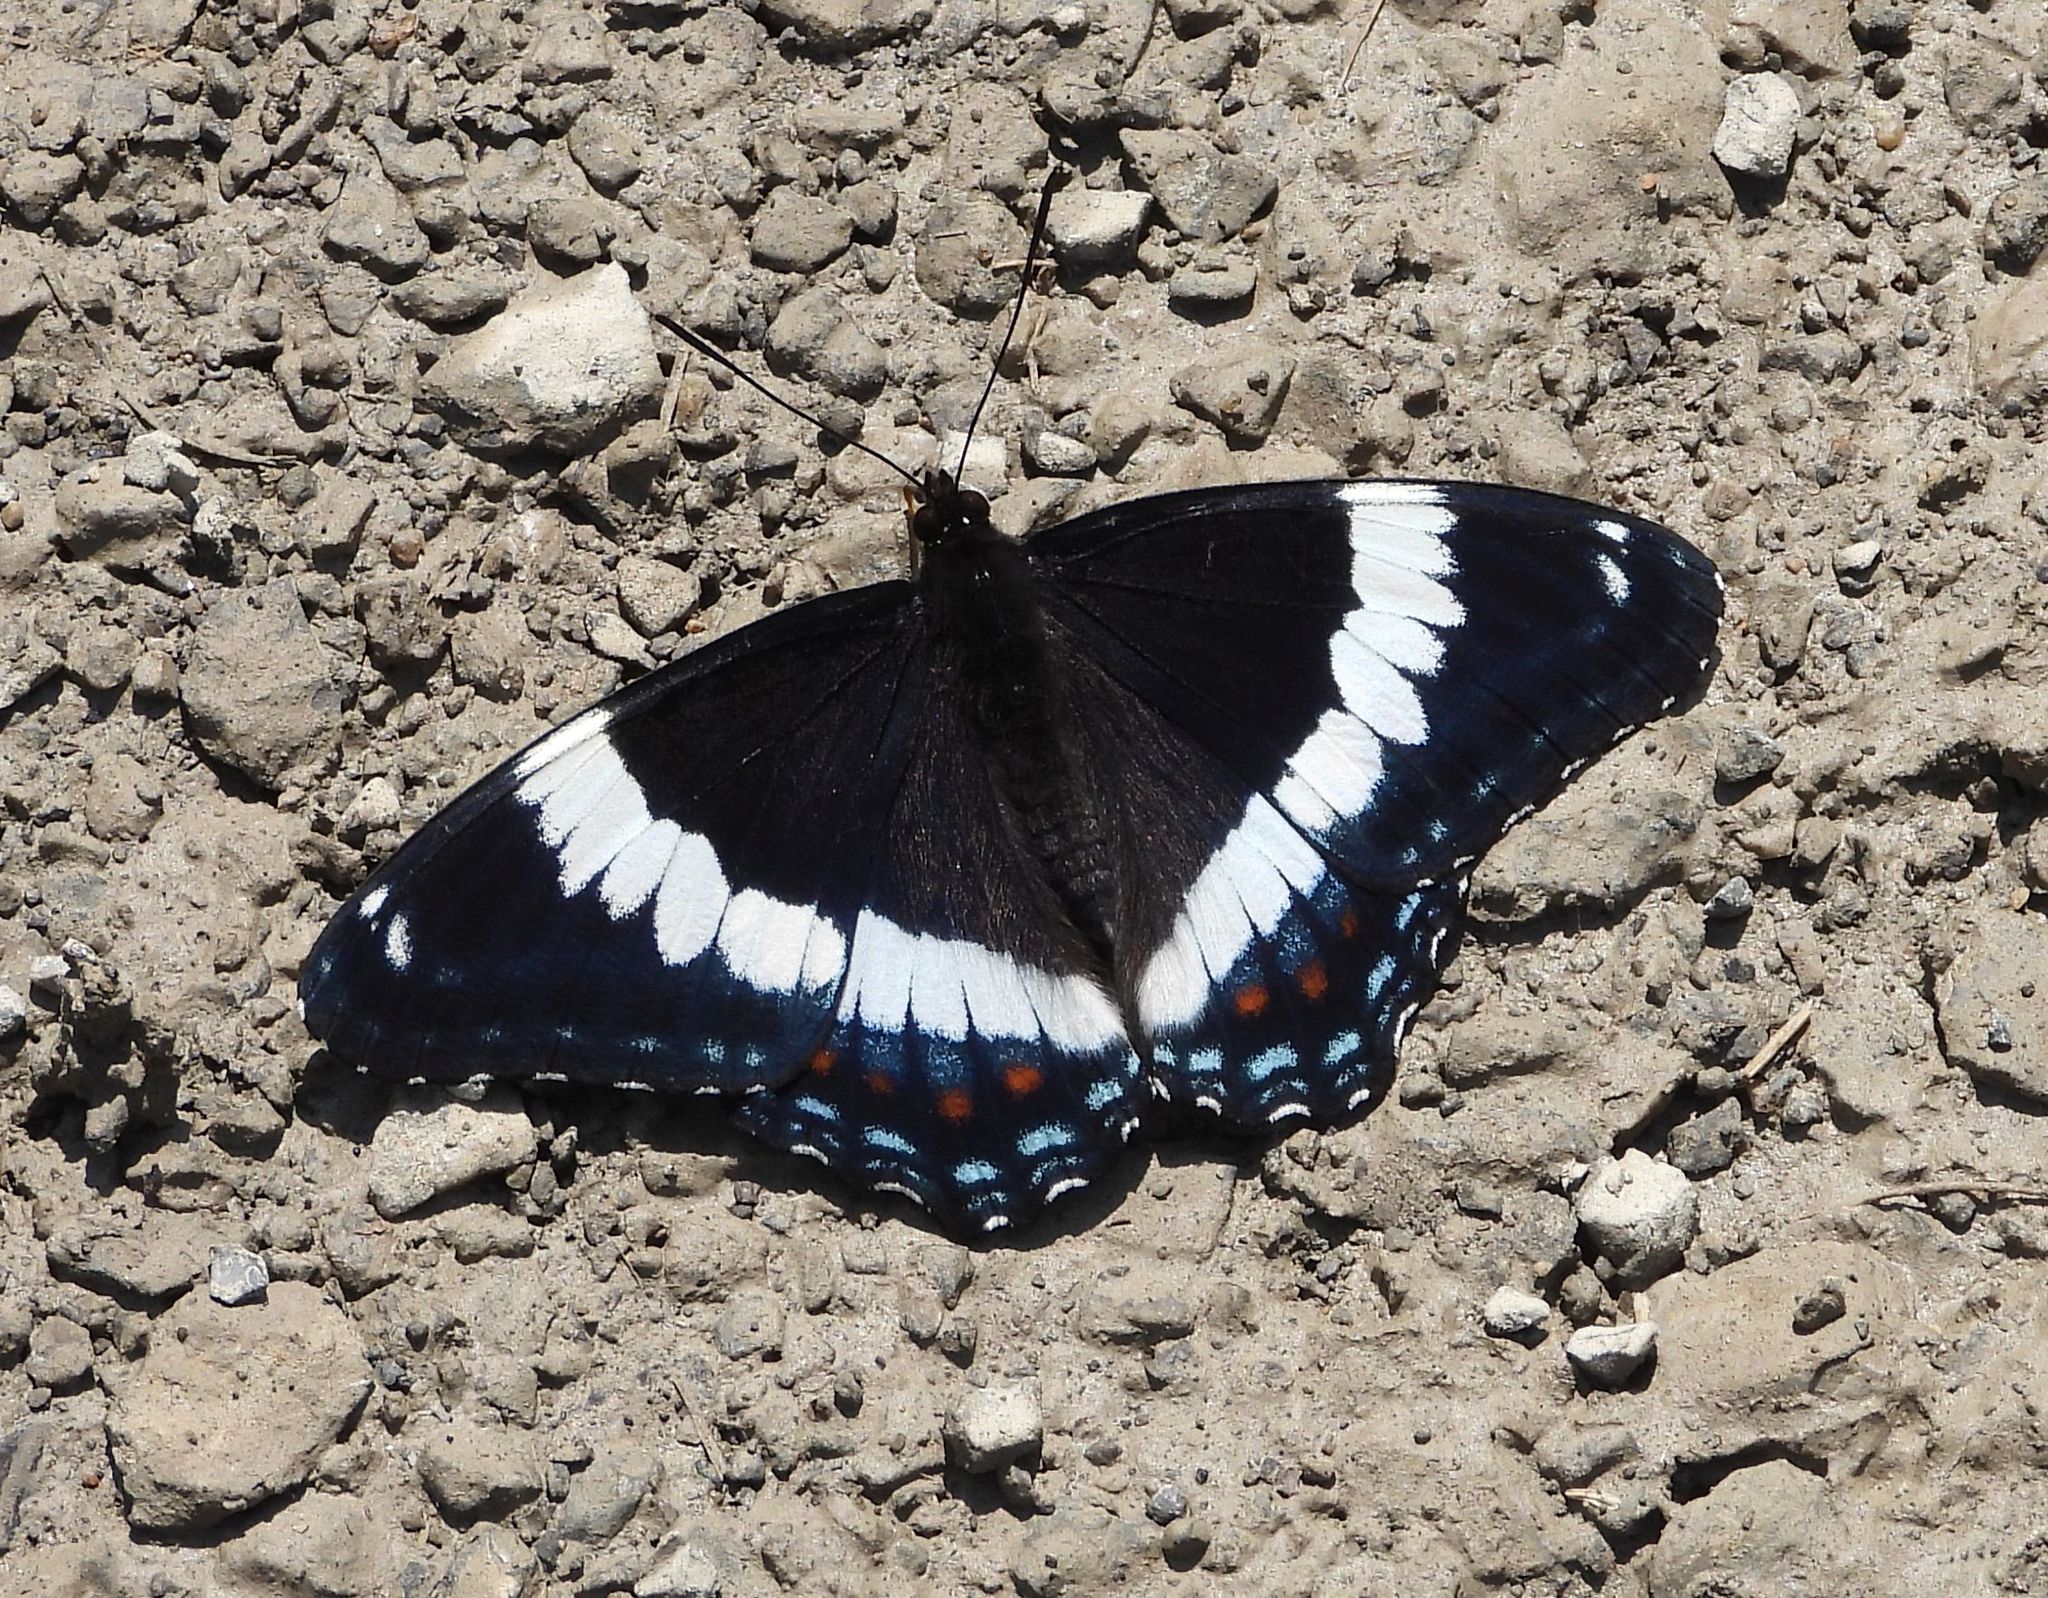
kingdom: Animalia
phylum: Arthropoda
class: Insecta
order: Lepidoptera
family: Nymphalidae
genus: Limenitis
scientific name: Limenitis arthemis
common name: Red-spotted admiral
